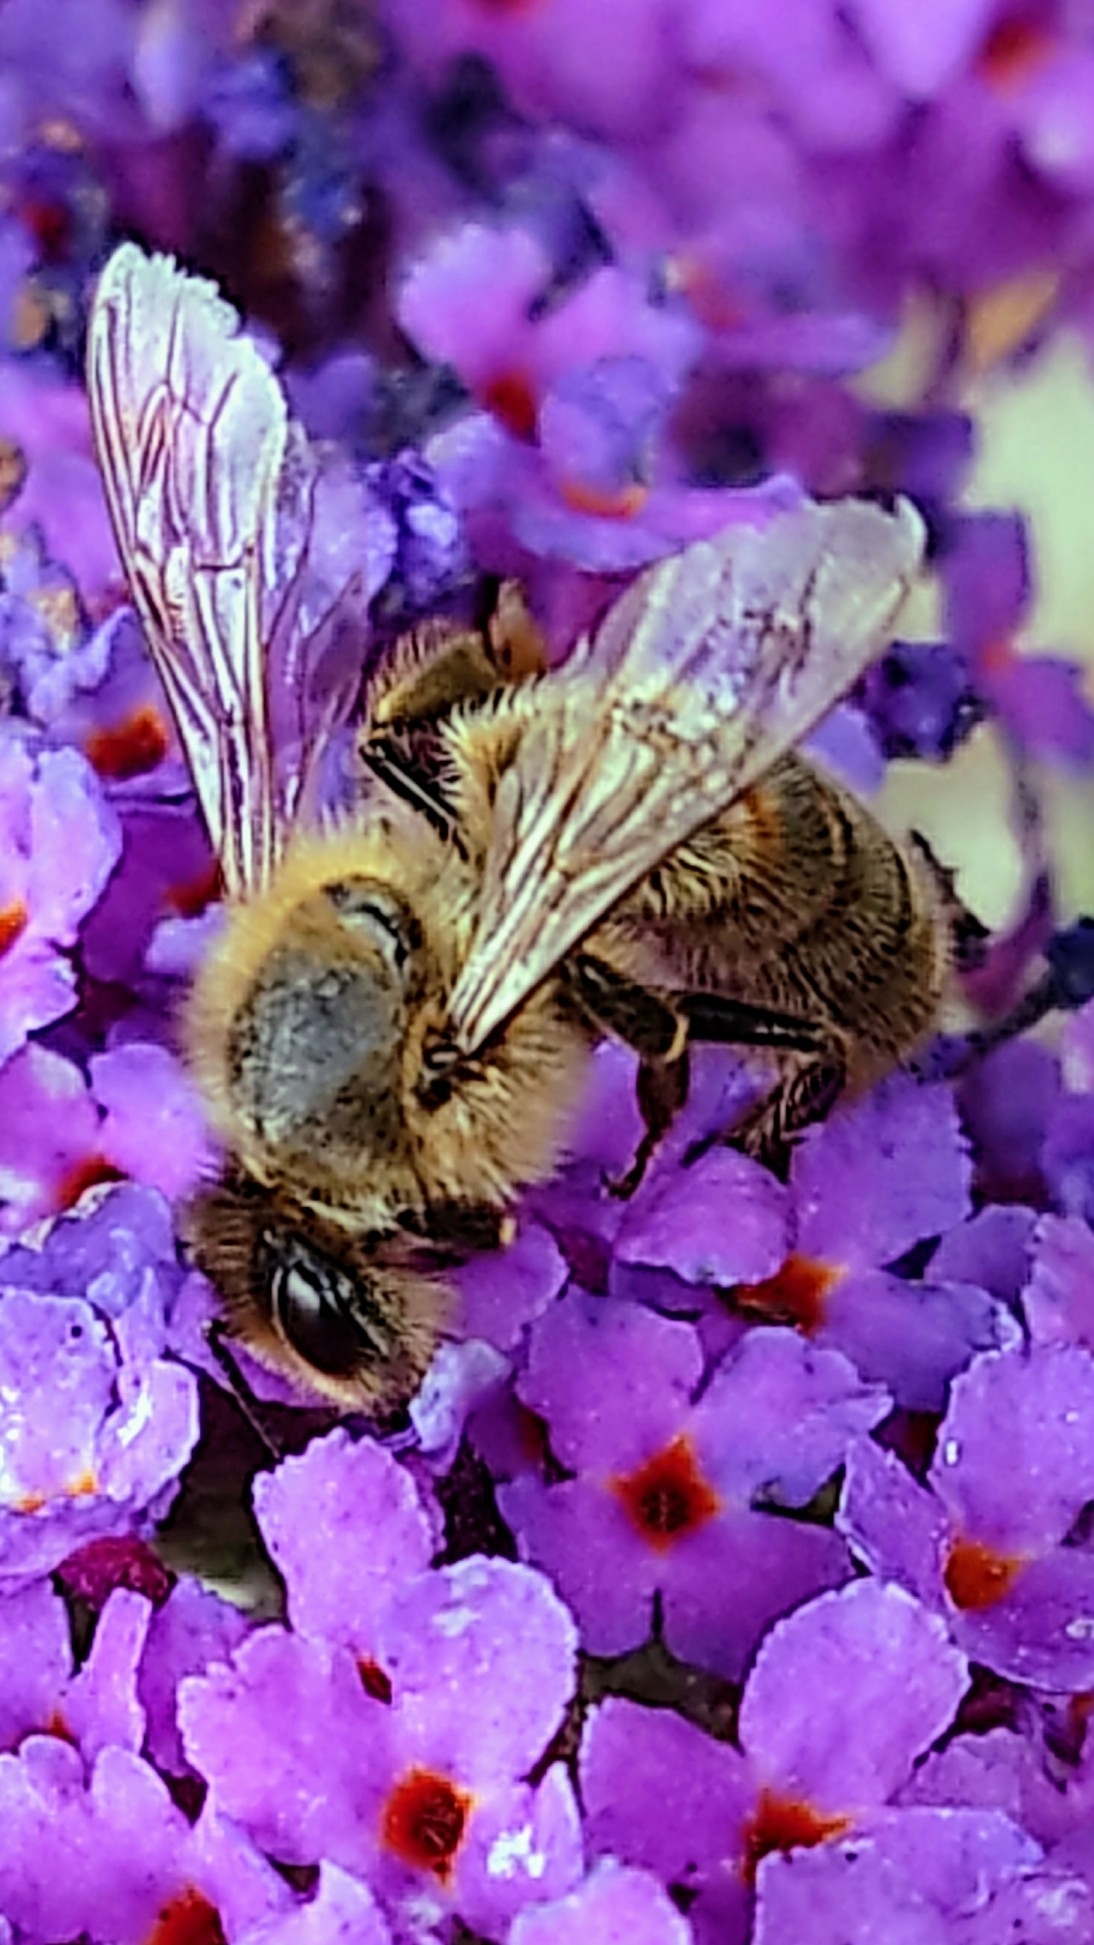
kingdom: Animalia
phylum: Arthropoda
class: Insecta
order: Hymenoptera
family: Apidae
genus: Apis
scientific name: Apis mellifera
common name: Honey bee
